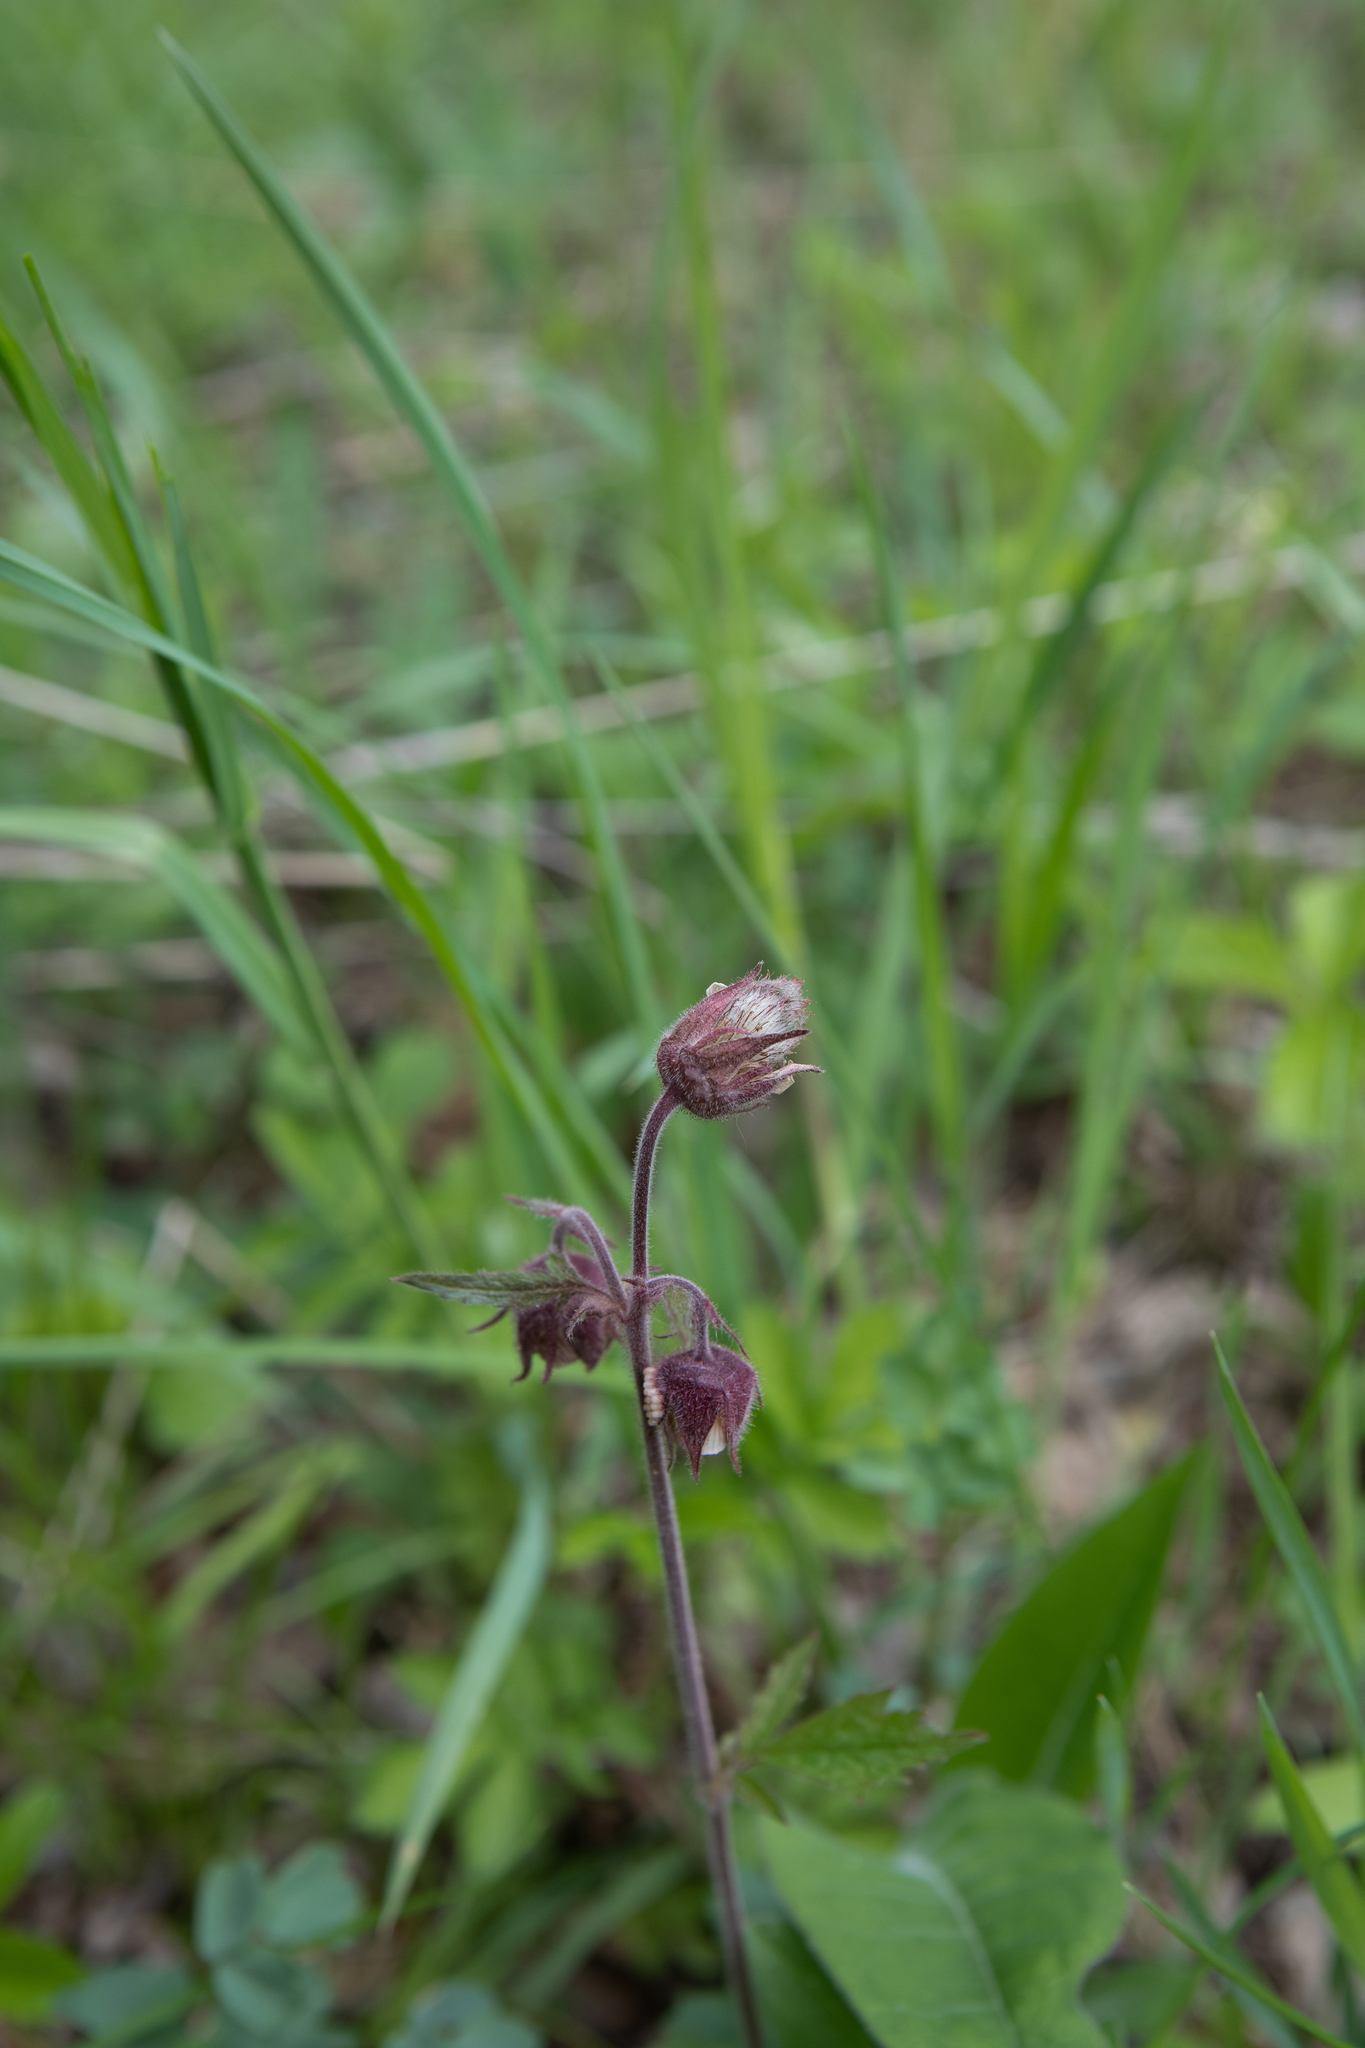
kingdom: Plantae
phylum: Tracheophyta
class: Magnoliopsida
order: Rosales
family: Rosaceae
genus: Geum
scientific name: Geum rivale
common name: Water avens
